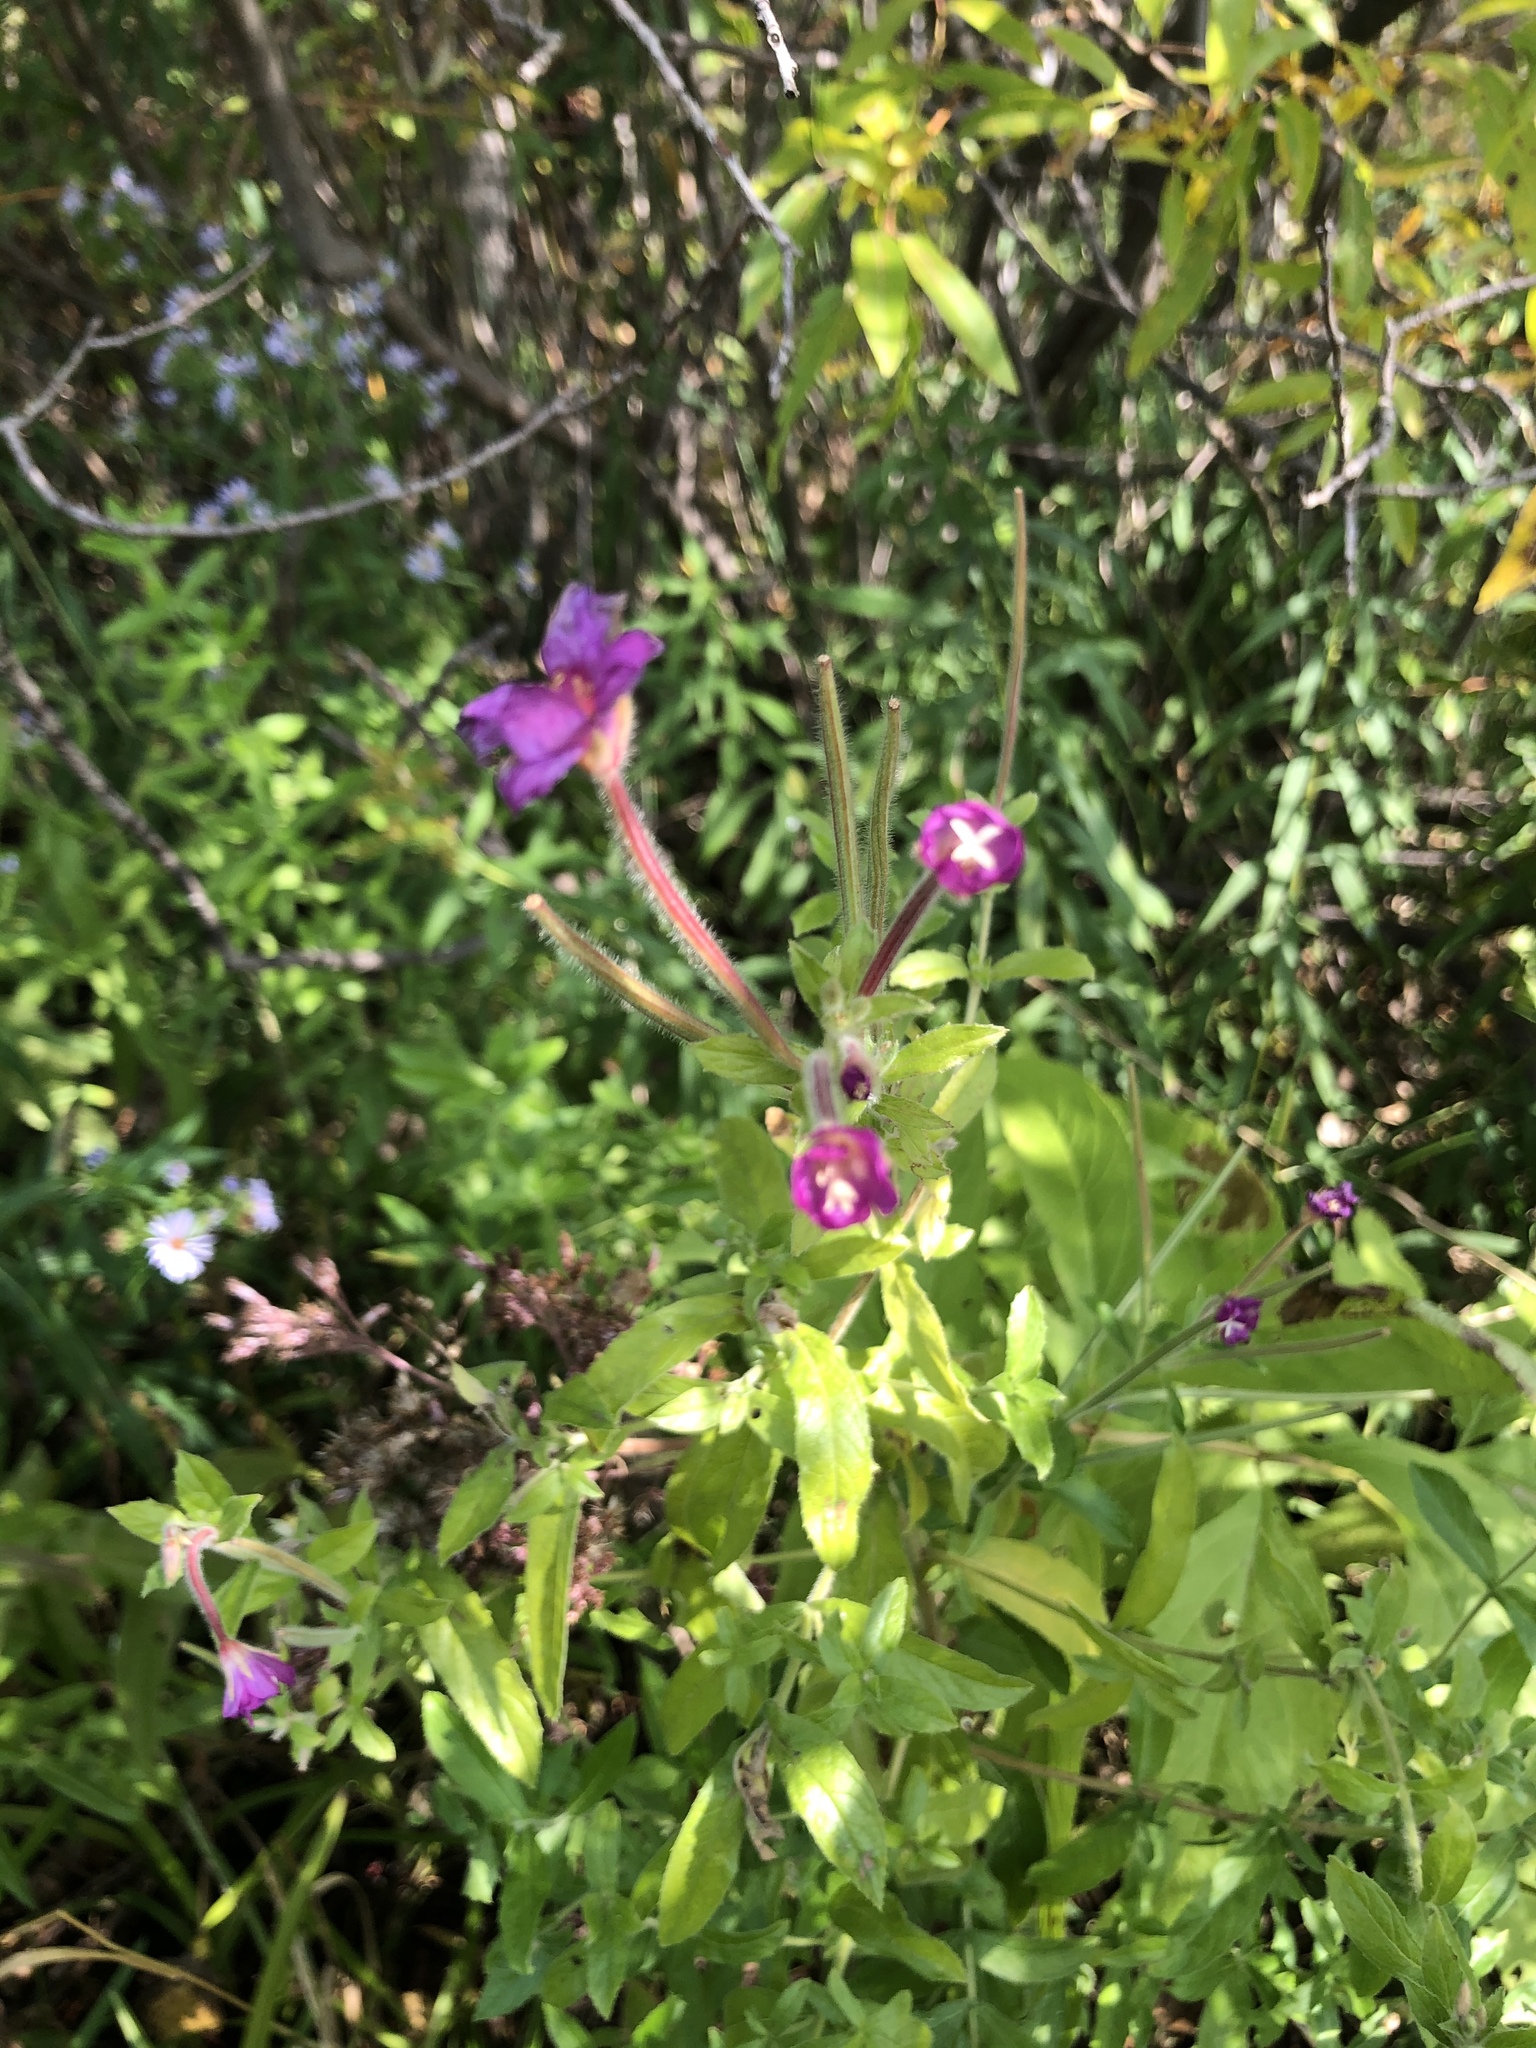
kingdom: Plantae
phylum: Tracheophyta
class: Magnoliopsida
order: Myrtales
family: Onagraceae
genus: Epilobium
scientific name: Epilobium hirsutum
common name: Great willowherb
